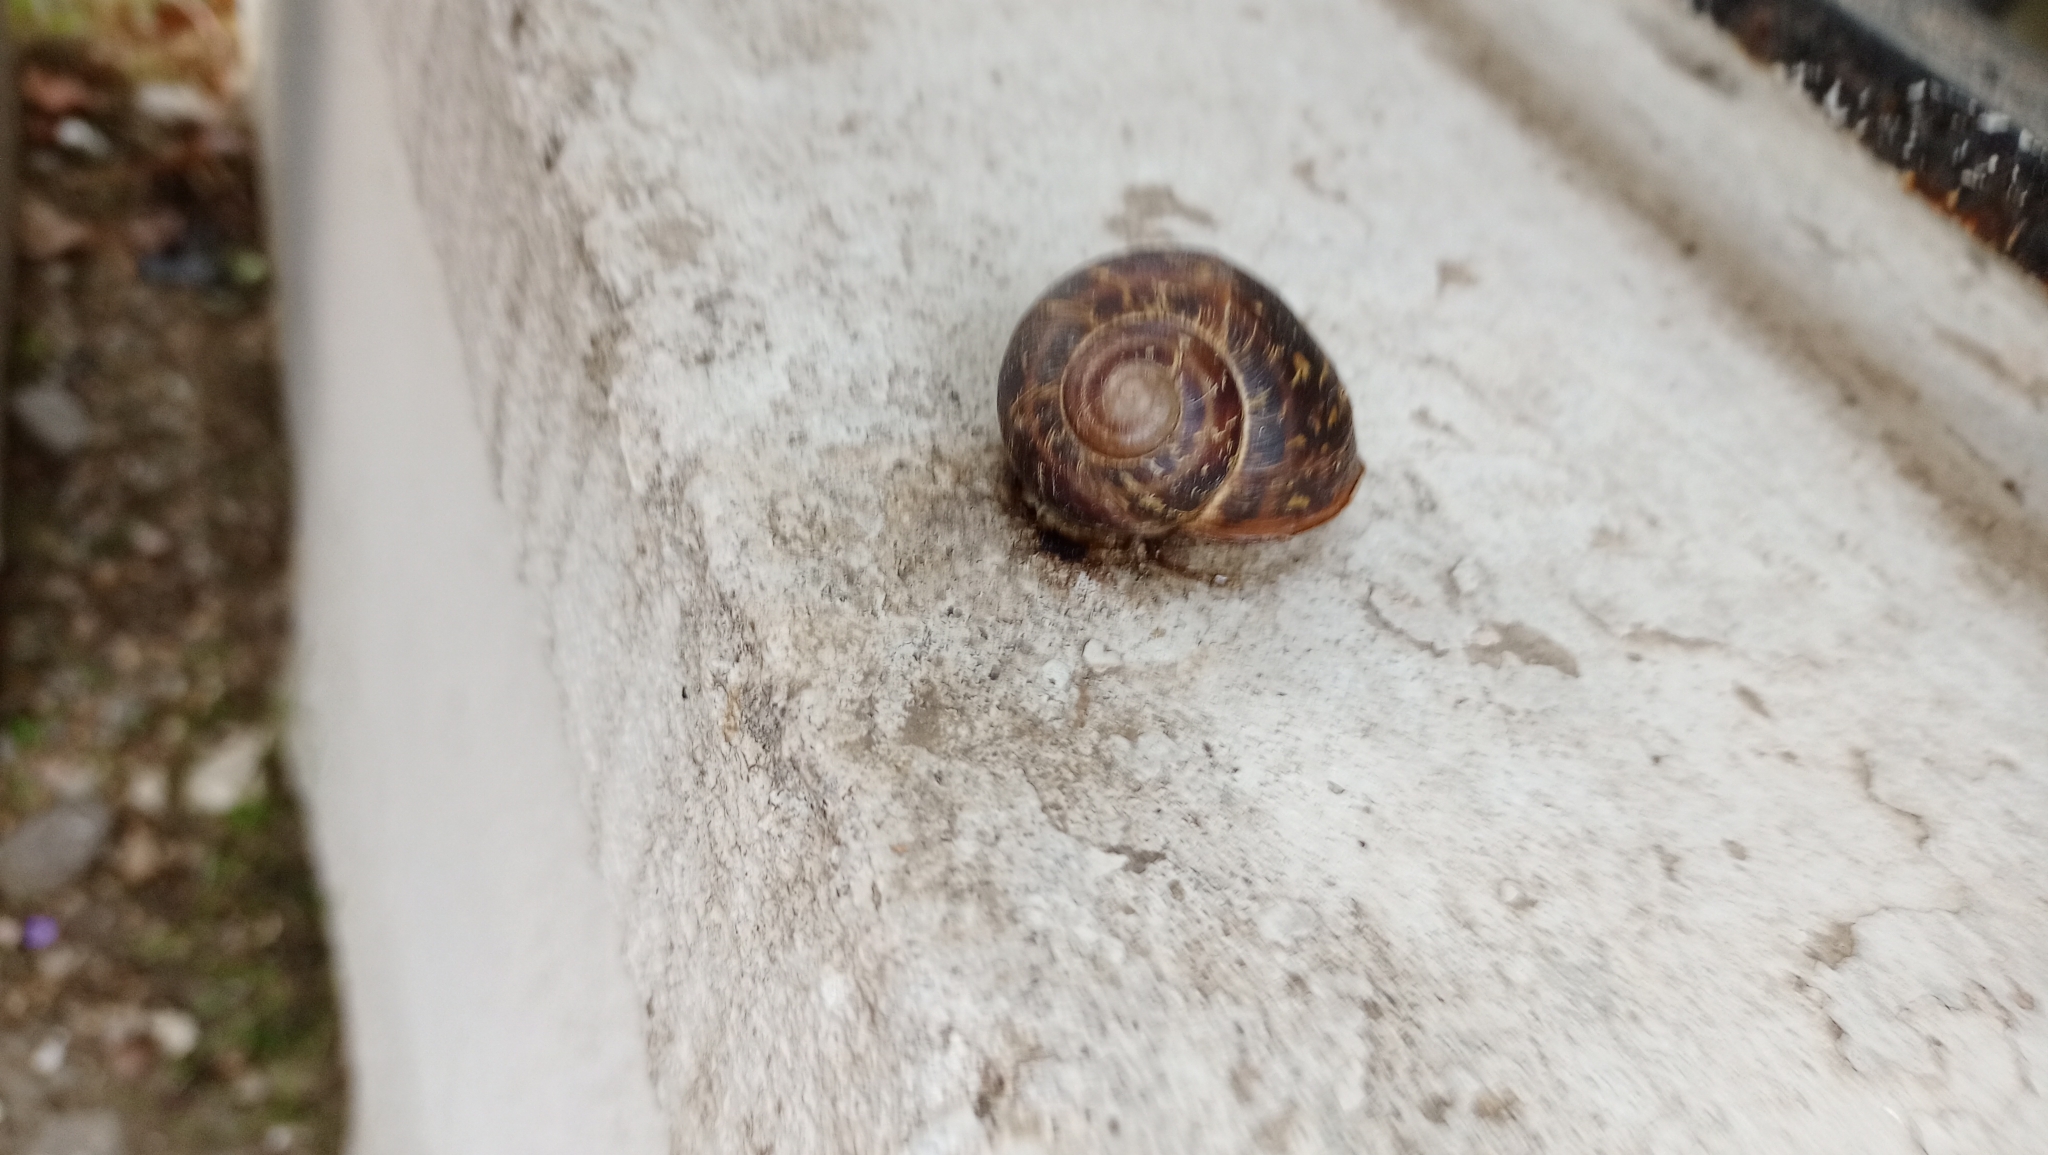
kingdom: Animalia
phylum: Mollusca
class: Gastropoda
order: Stylommatophora
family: Helicidae
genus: Cornu
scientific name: Cornu aspersum
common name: Brown garden snail
